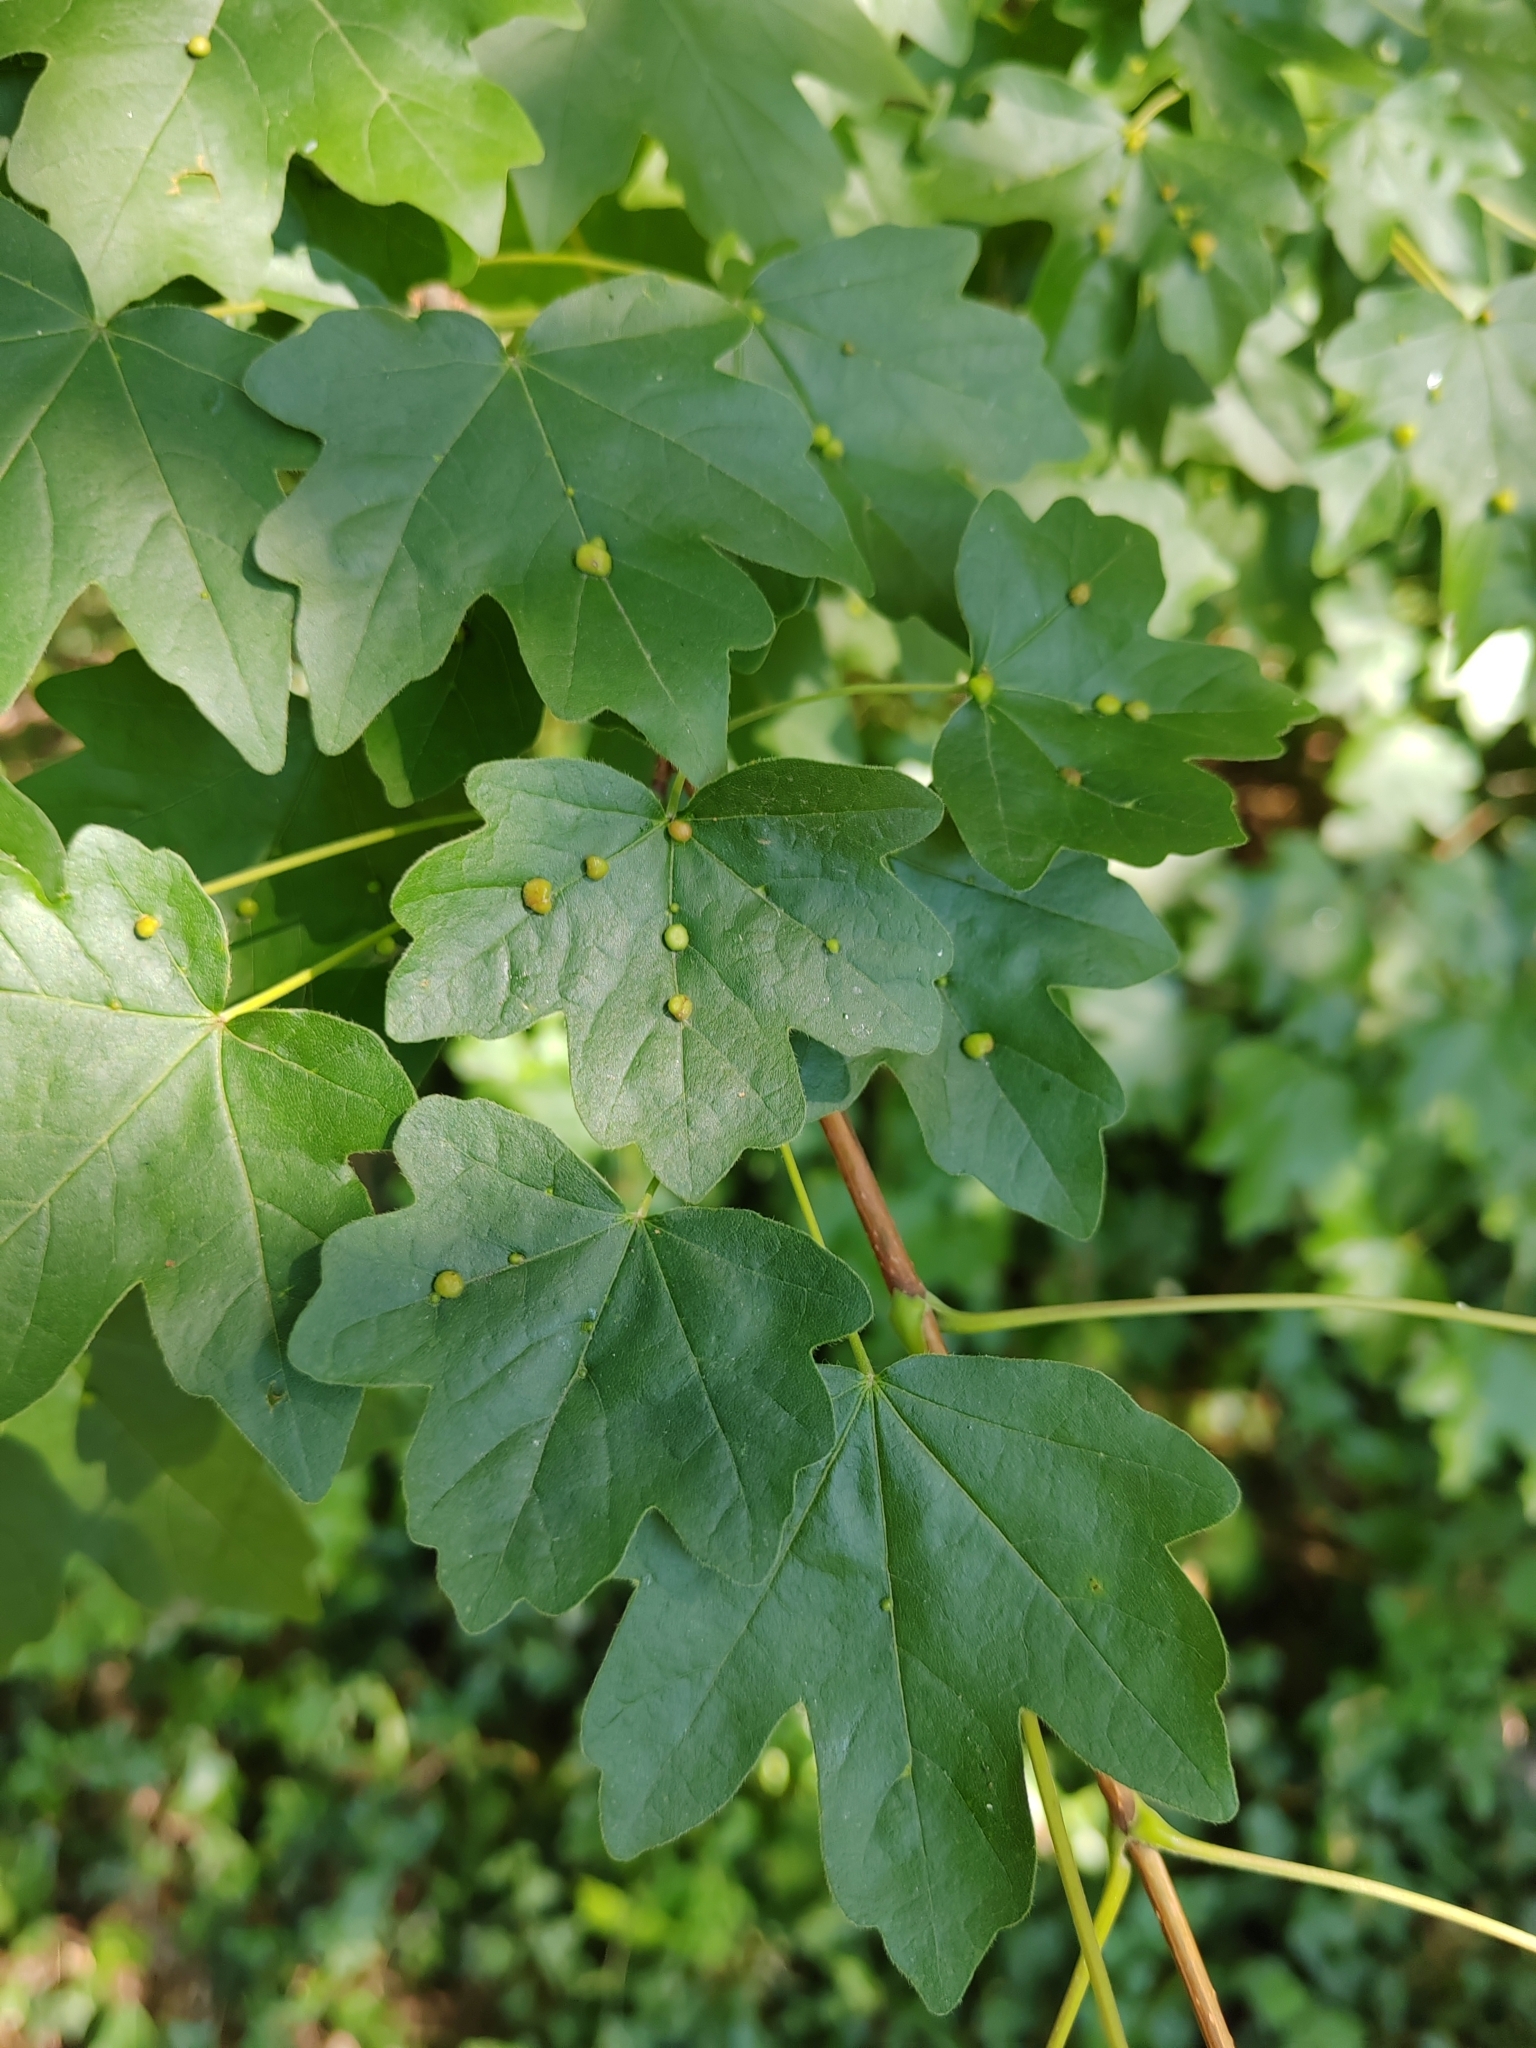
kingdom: Plantae
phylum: Tracheophyta
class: Magnoliopsida
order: Sapindales
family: Sapindaceae
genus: Acer
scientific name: Acer campestre
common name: Field maple
